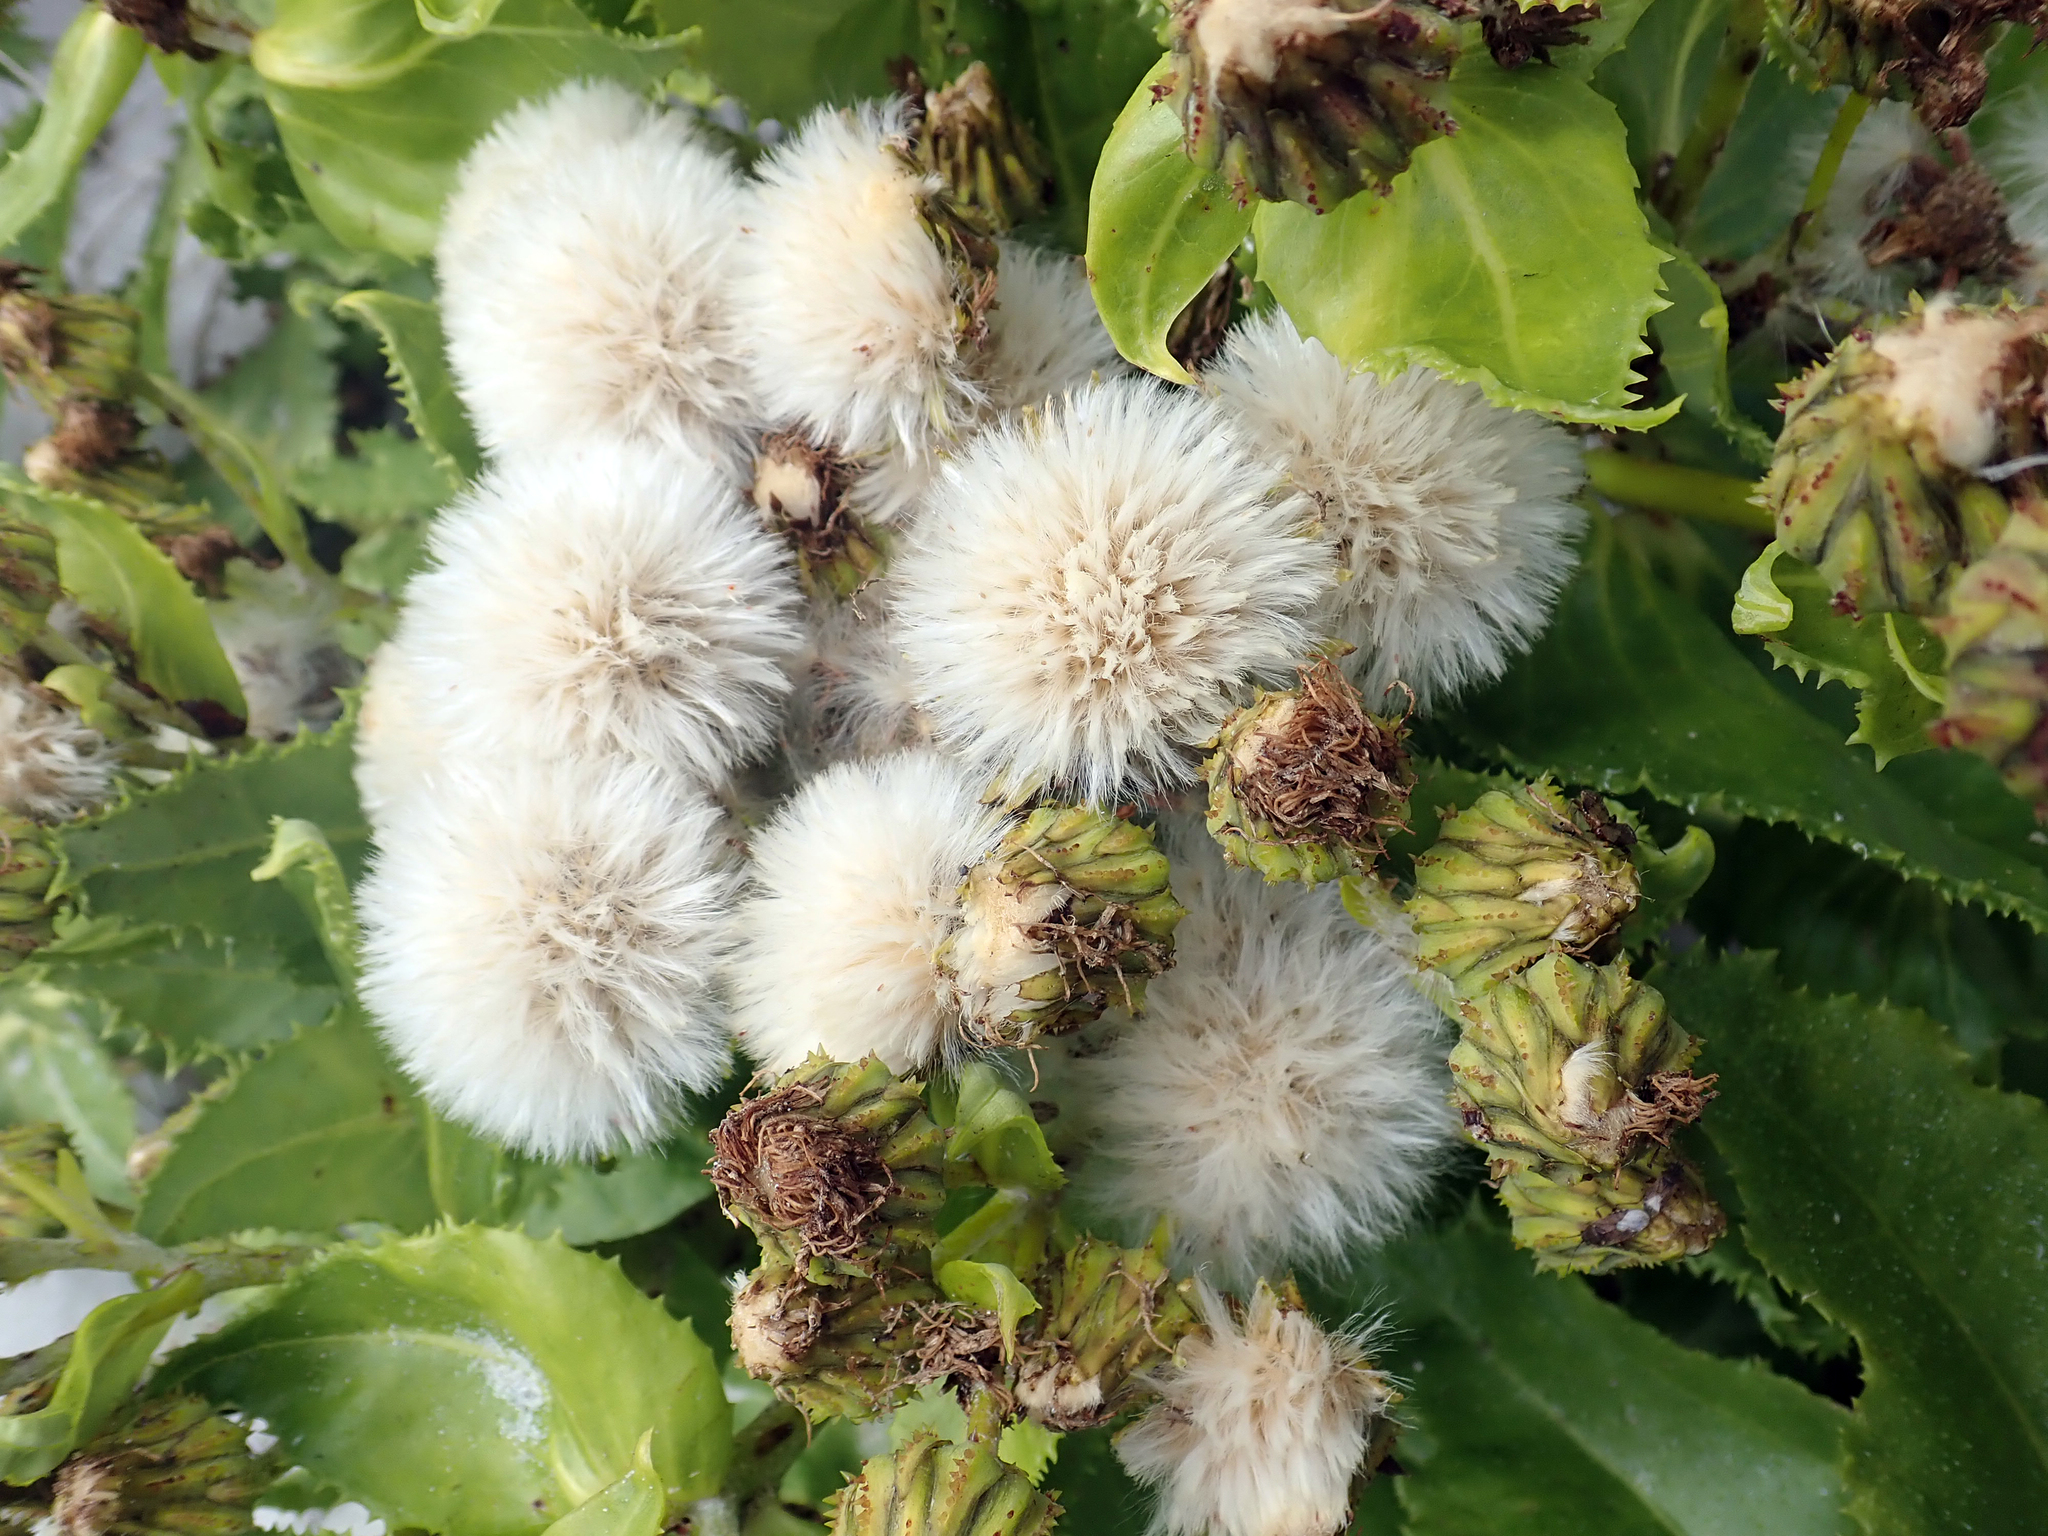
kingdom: Plantae
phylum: Tracheophyta
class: Magnoliopsida
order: Asterales
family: Asteraceae
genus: Sonchus
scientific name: Sonchus grandifolius
